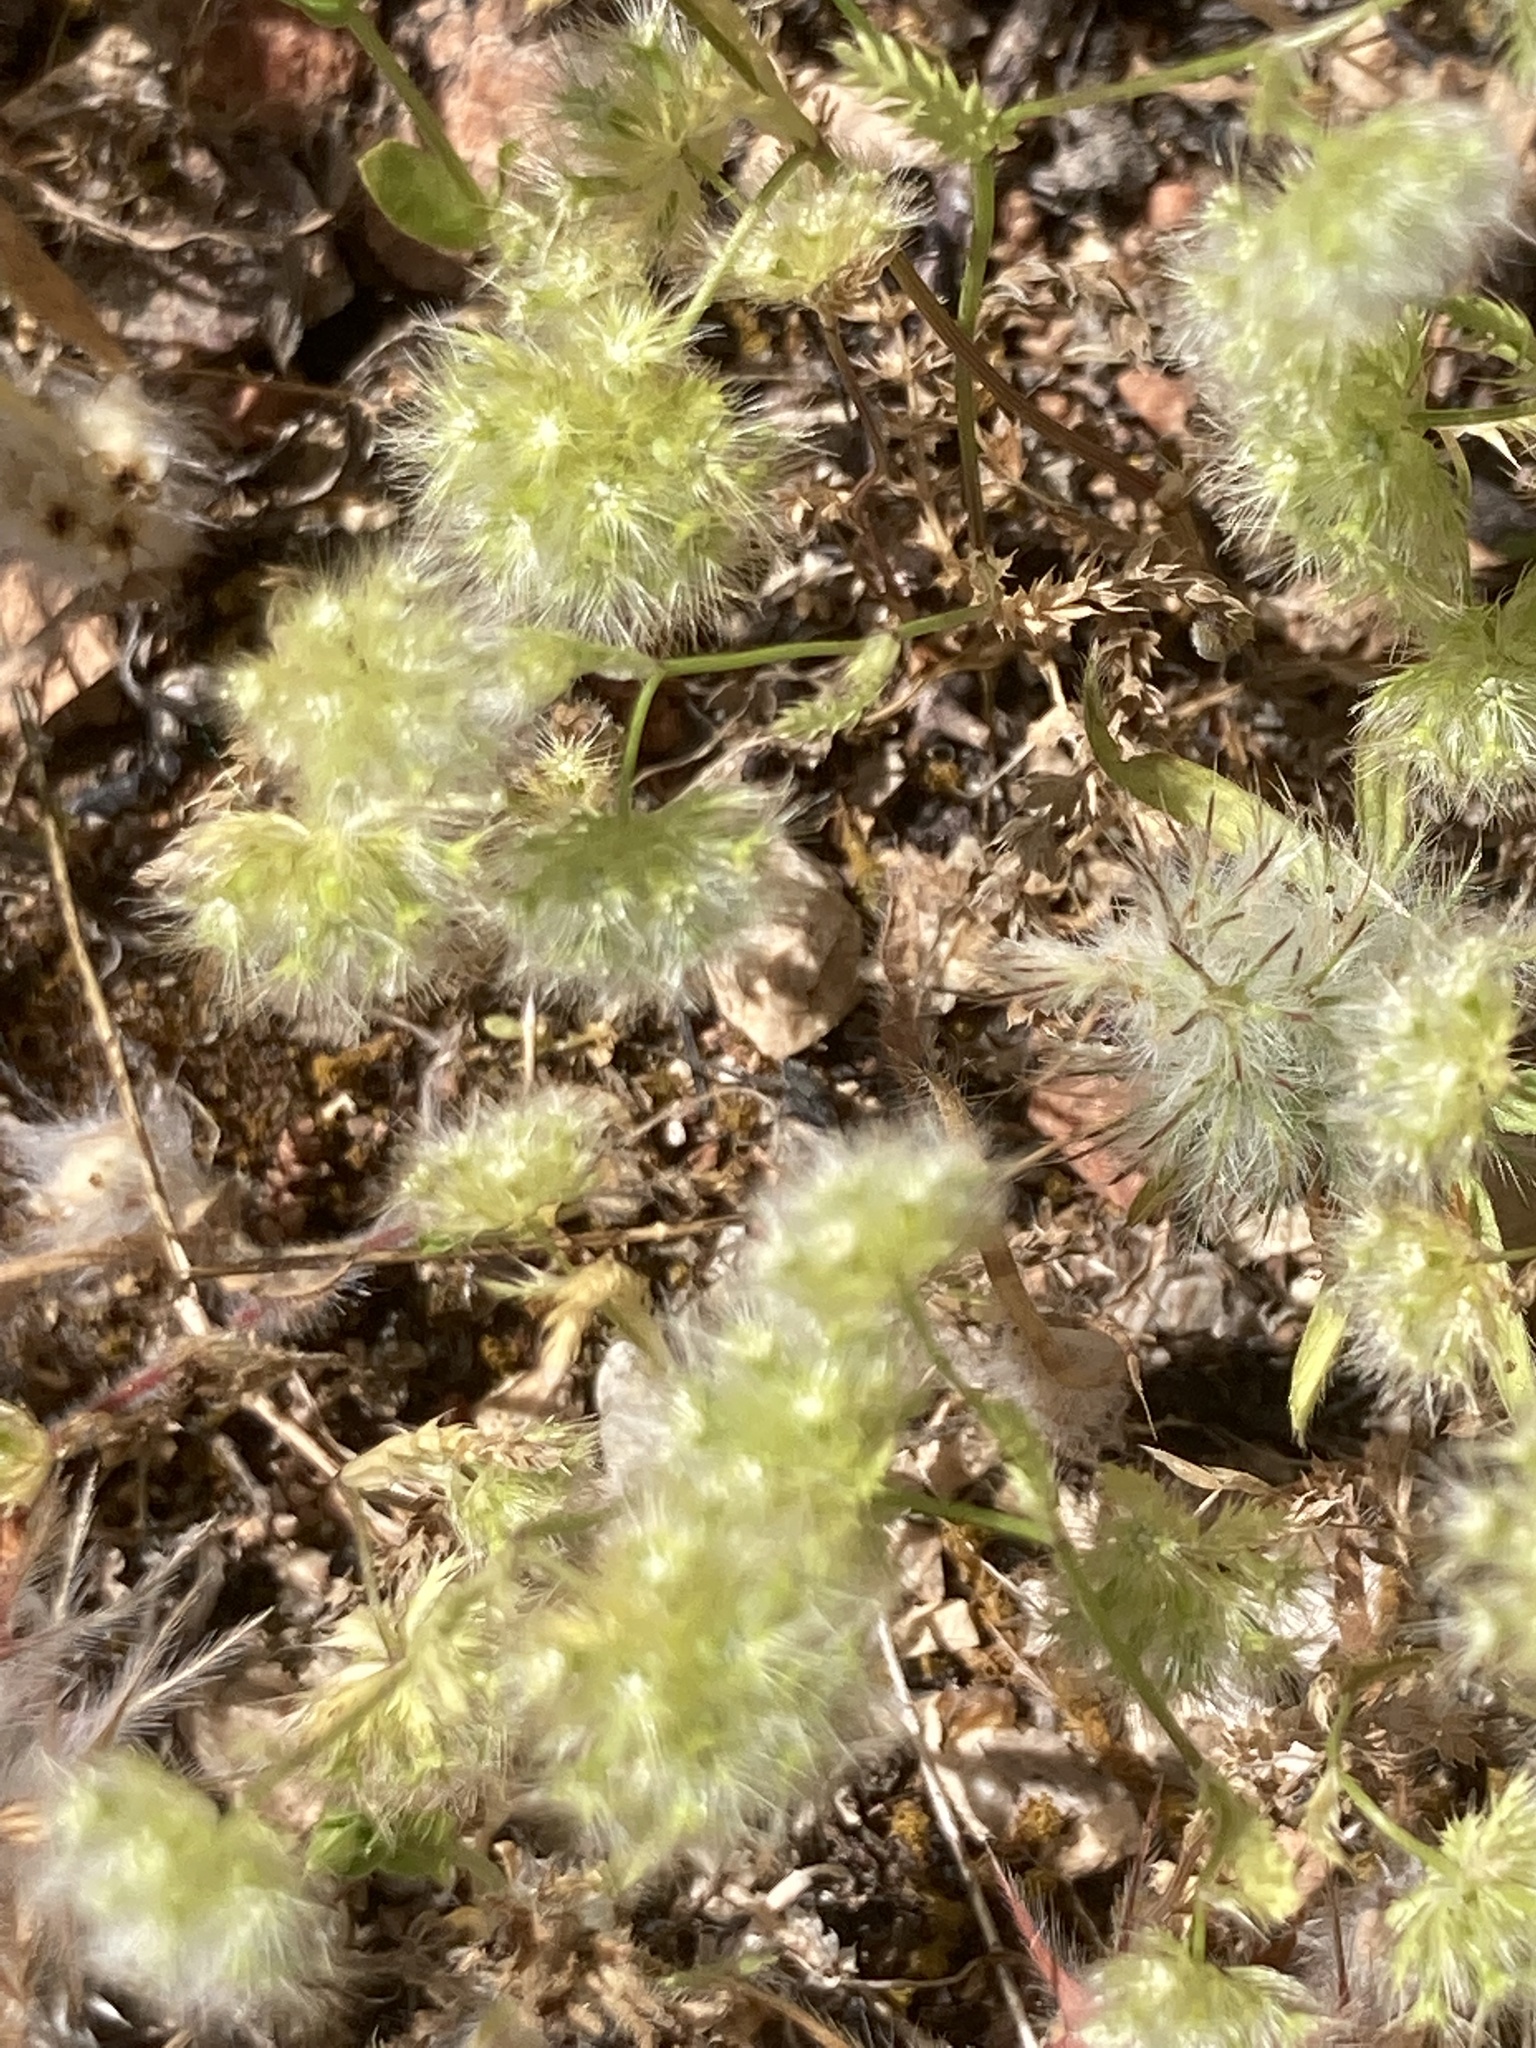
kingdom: Plantae
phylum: Tracheophyta
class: Magnoliopsida
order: Apiales
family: Apiaceae
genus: Lagoecia
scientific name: Lagoecia cuminoides
